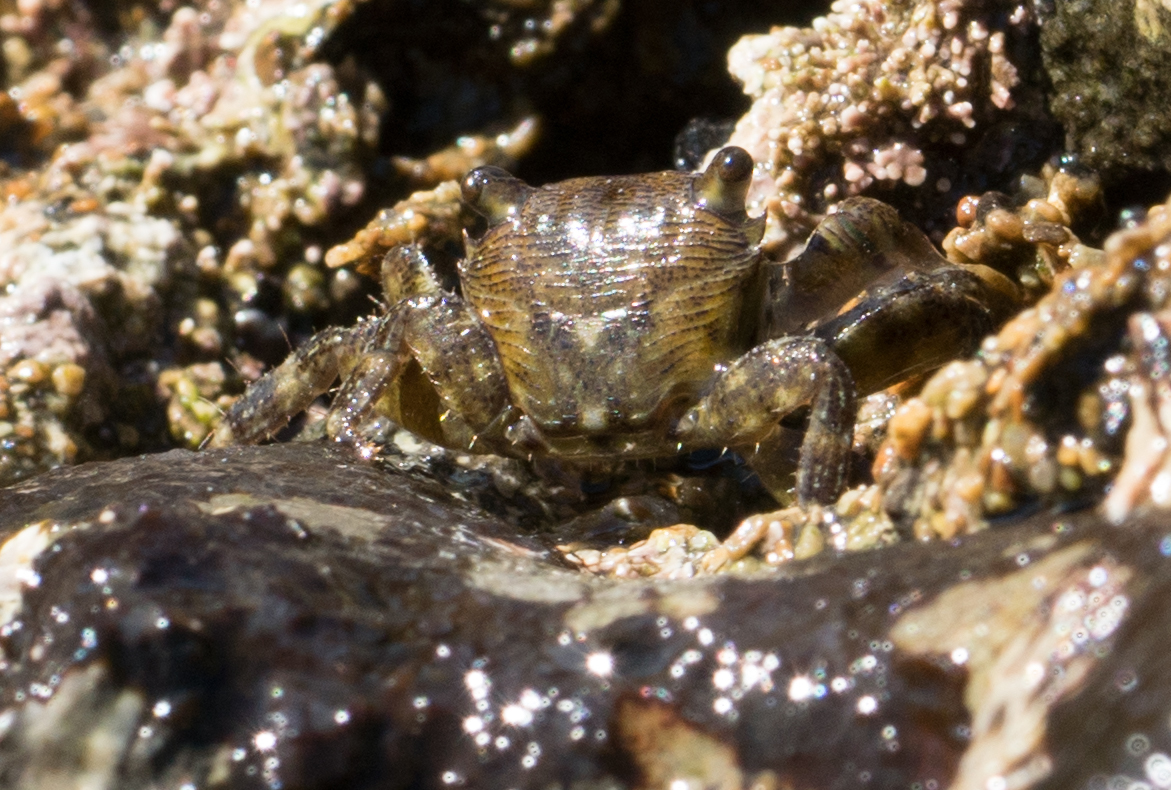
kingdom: Animalia
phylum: Arthropoda
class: Malacostraca
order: Decapoda
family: Grapsidae
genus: Pachygrapsus
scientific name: Pachygrapsus crassipes
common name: Striped shore crab
